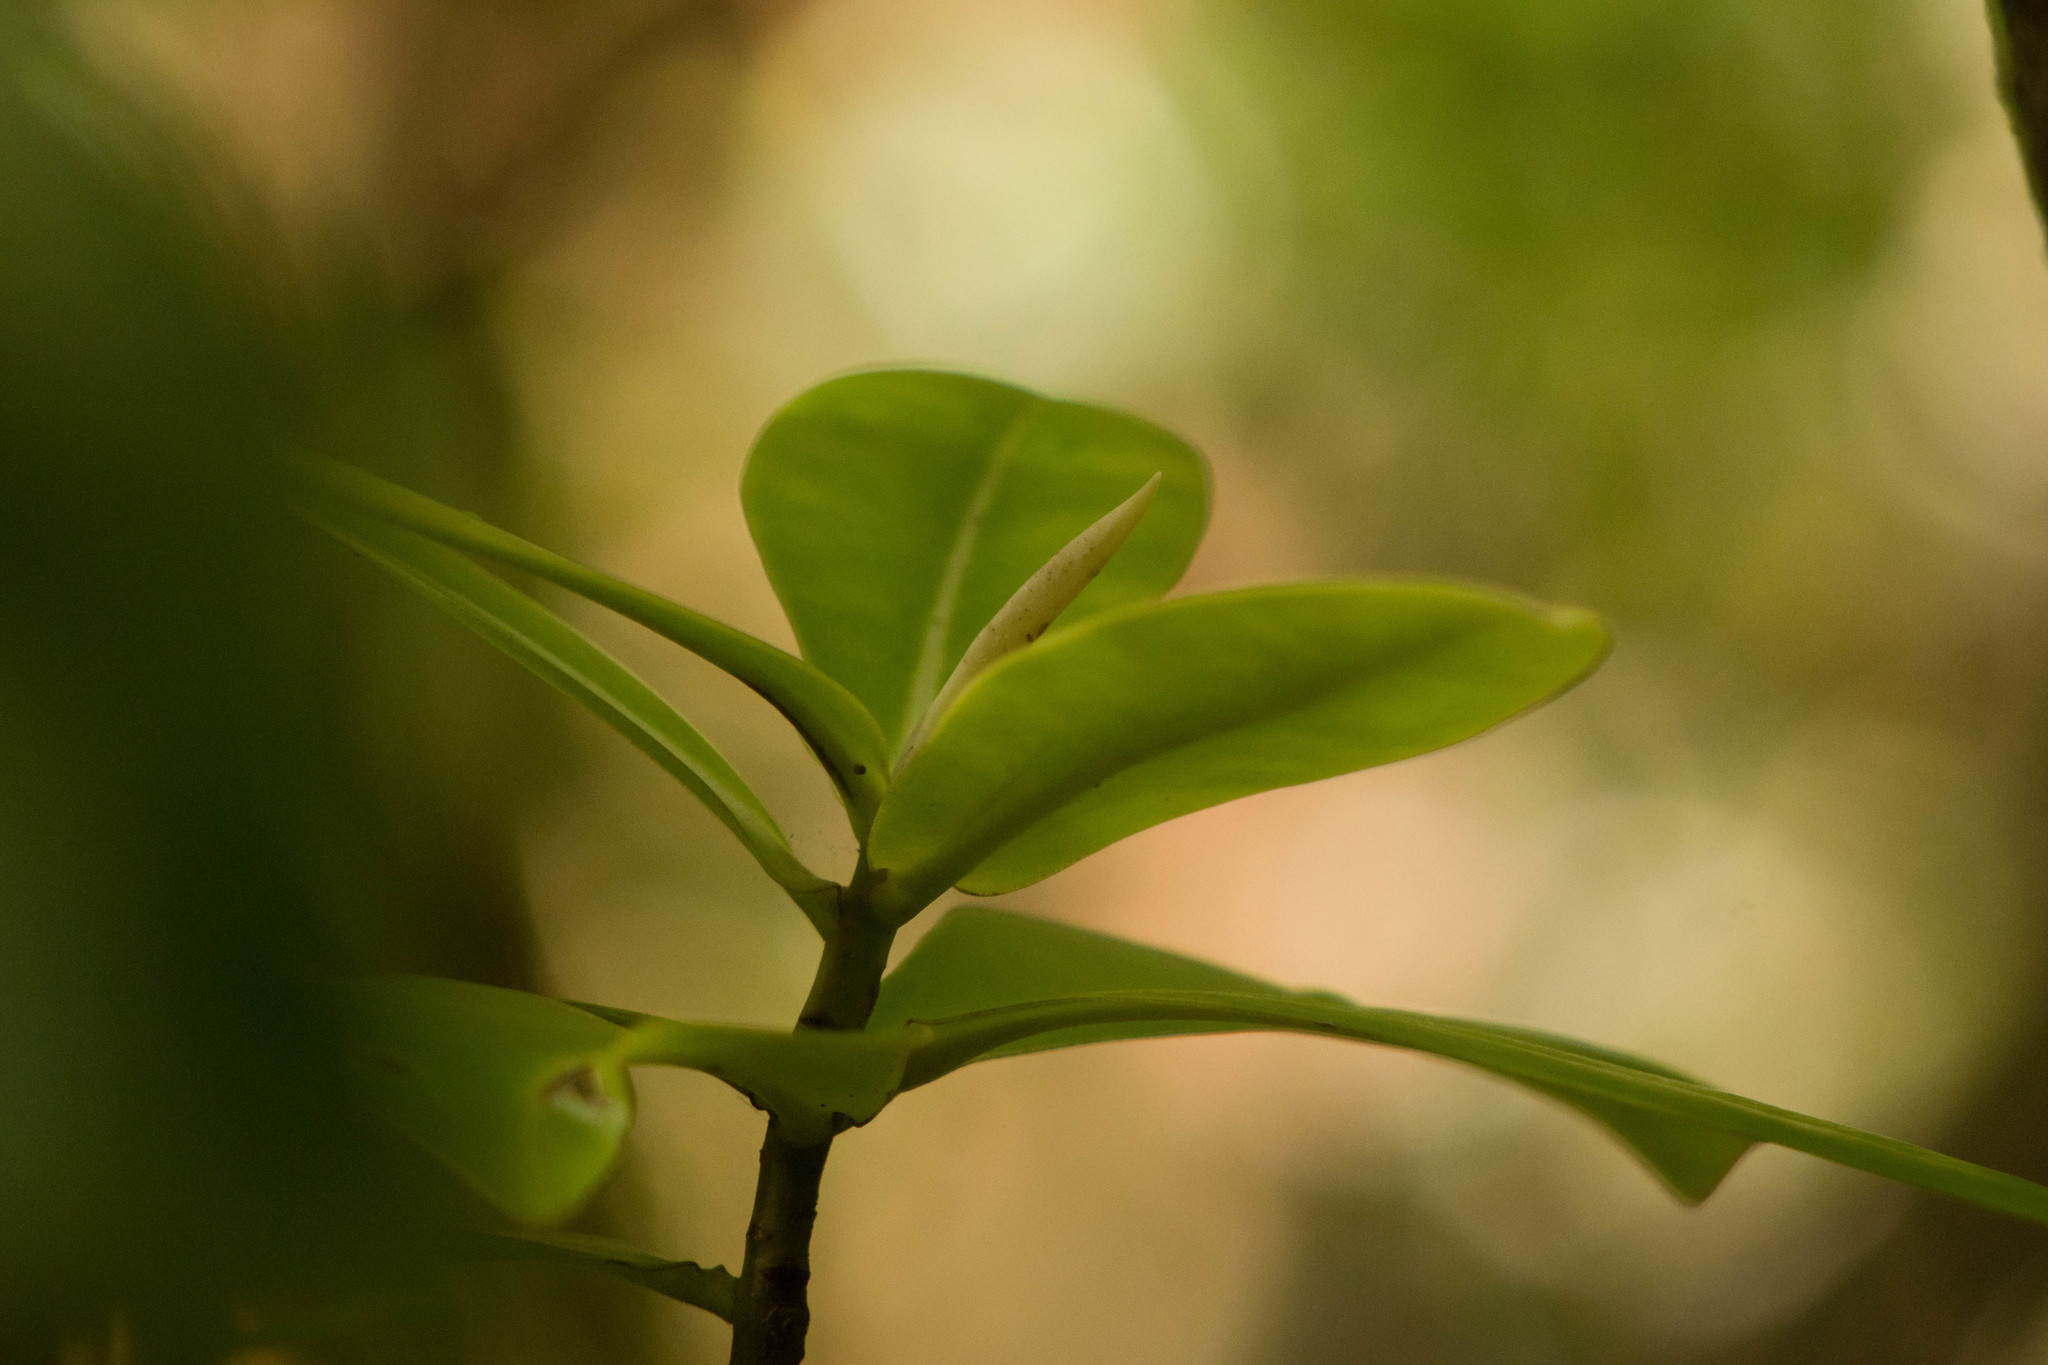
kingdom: Plantae
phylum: Tracheophyta
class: Magnoliopsida
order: Ericales
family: Primulaceae
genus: Myrsine
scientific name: Myrsine lessertiana
